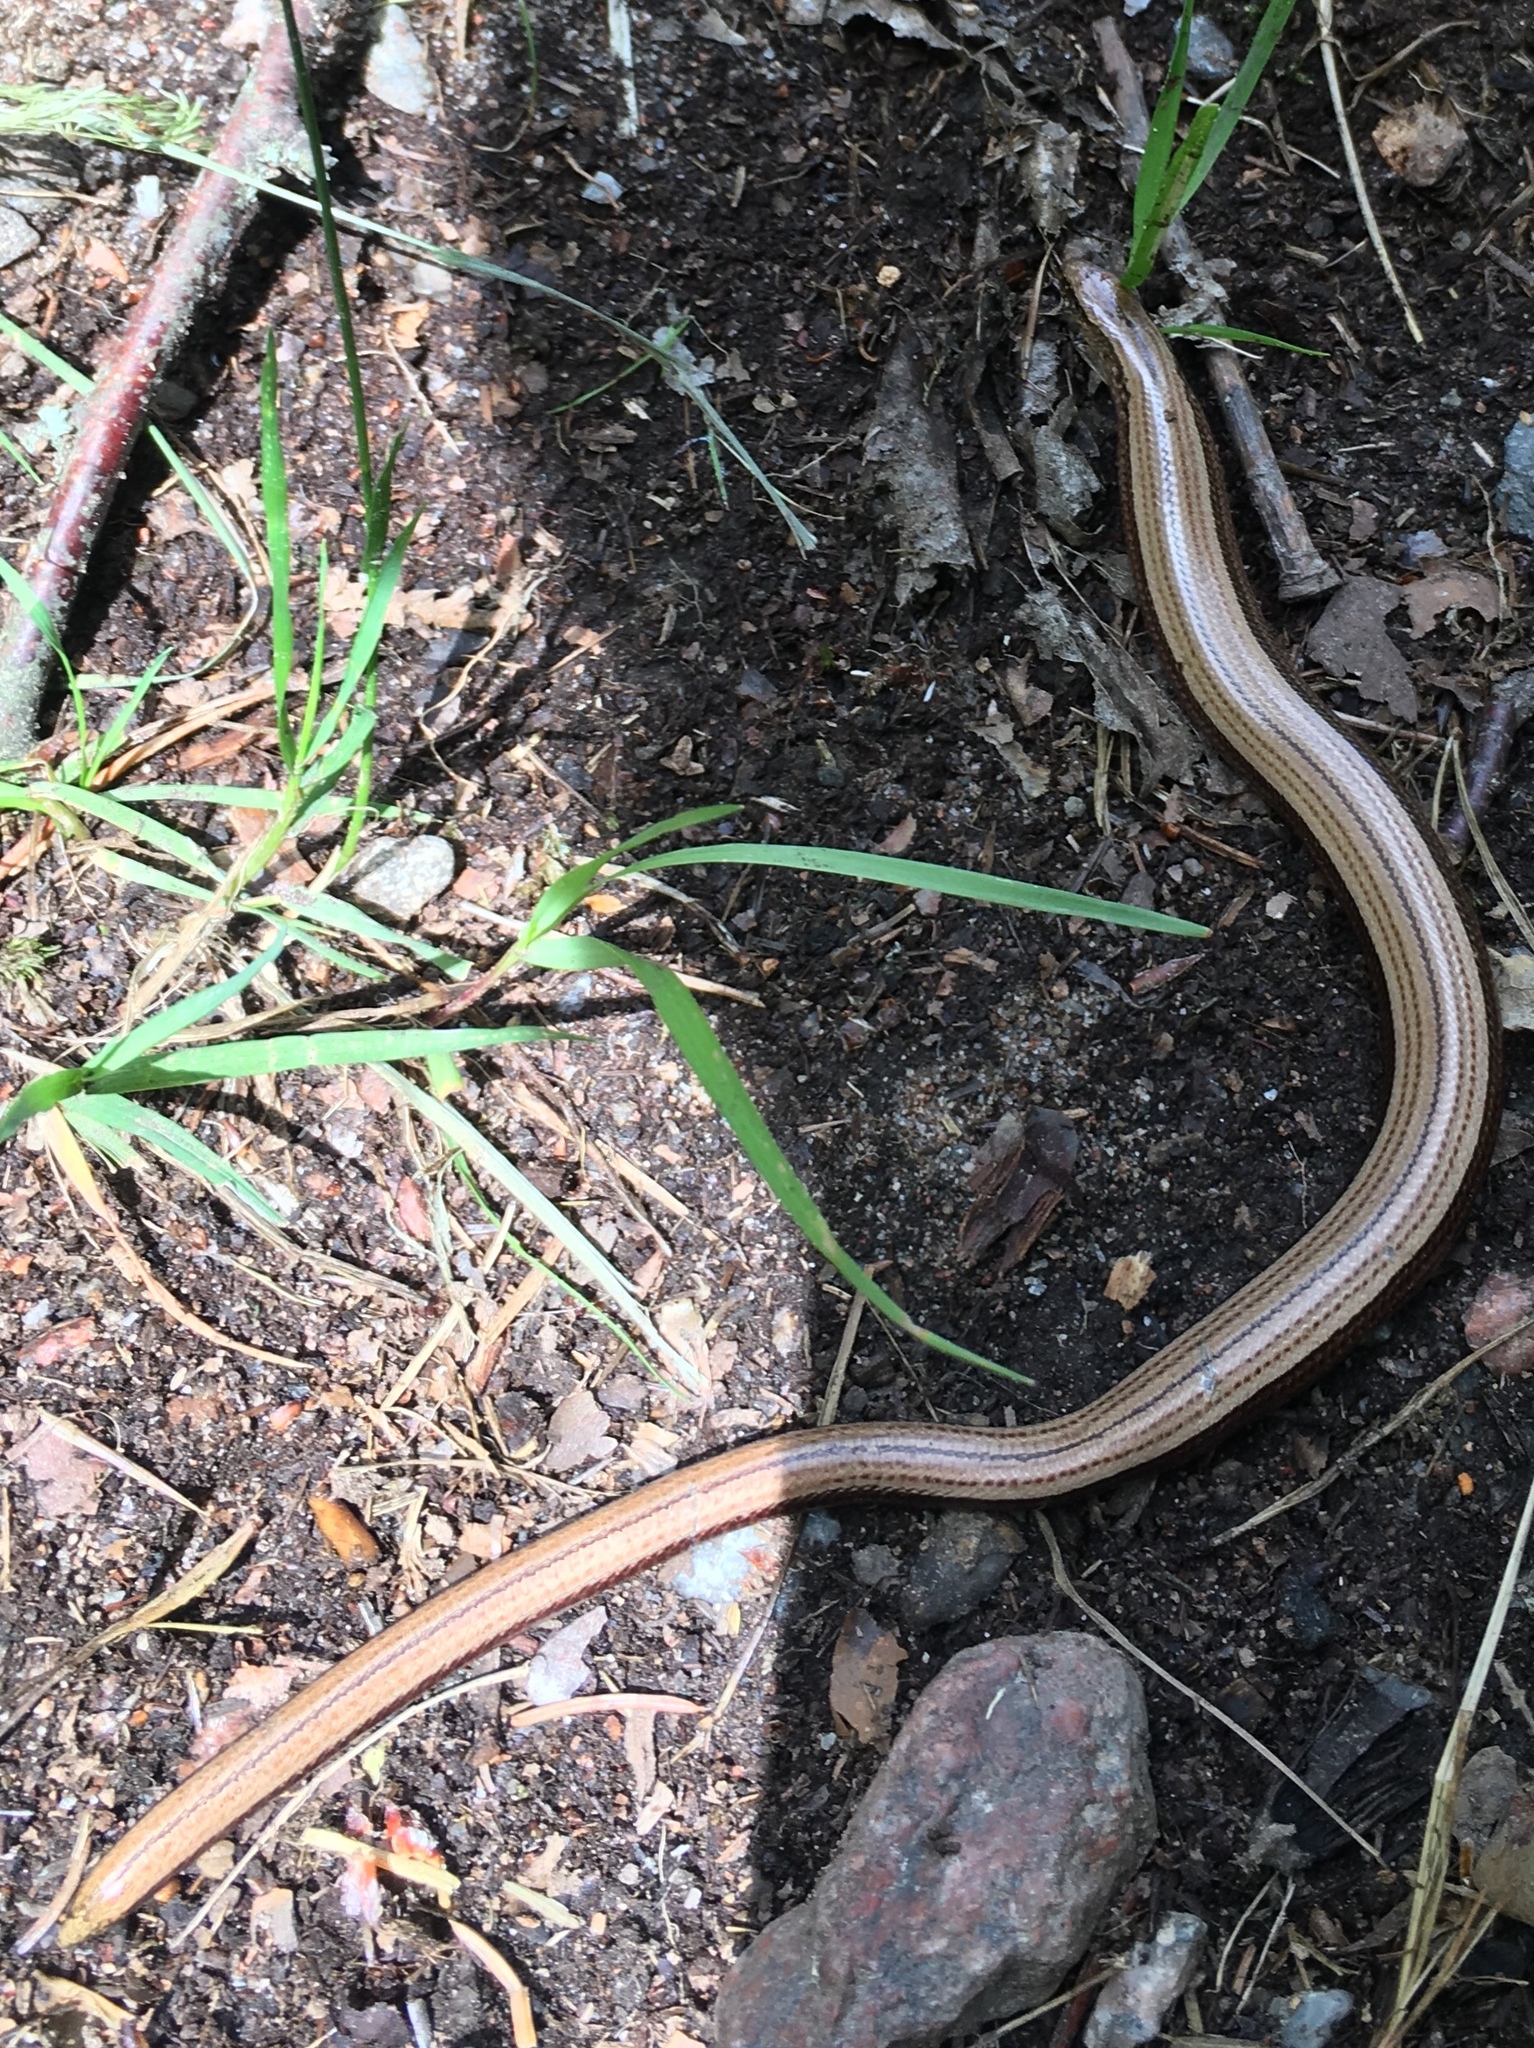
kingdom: Animalia
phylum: Chordata
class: Squamata
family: Anguidae
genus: Anguis
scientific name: Anguis fragilis
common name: Slow worm
